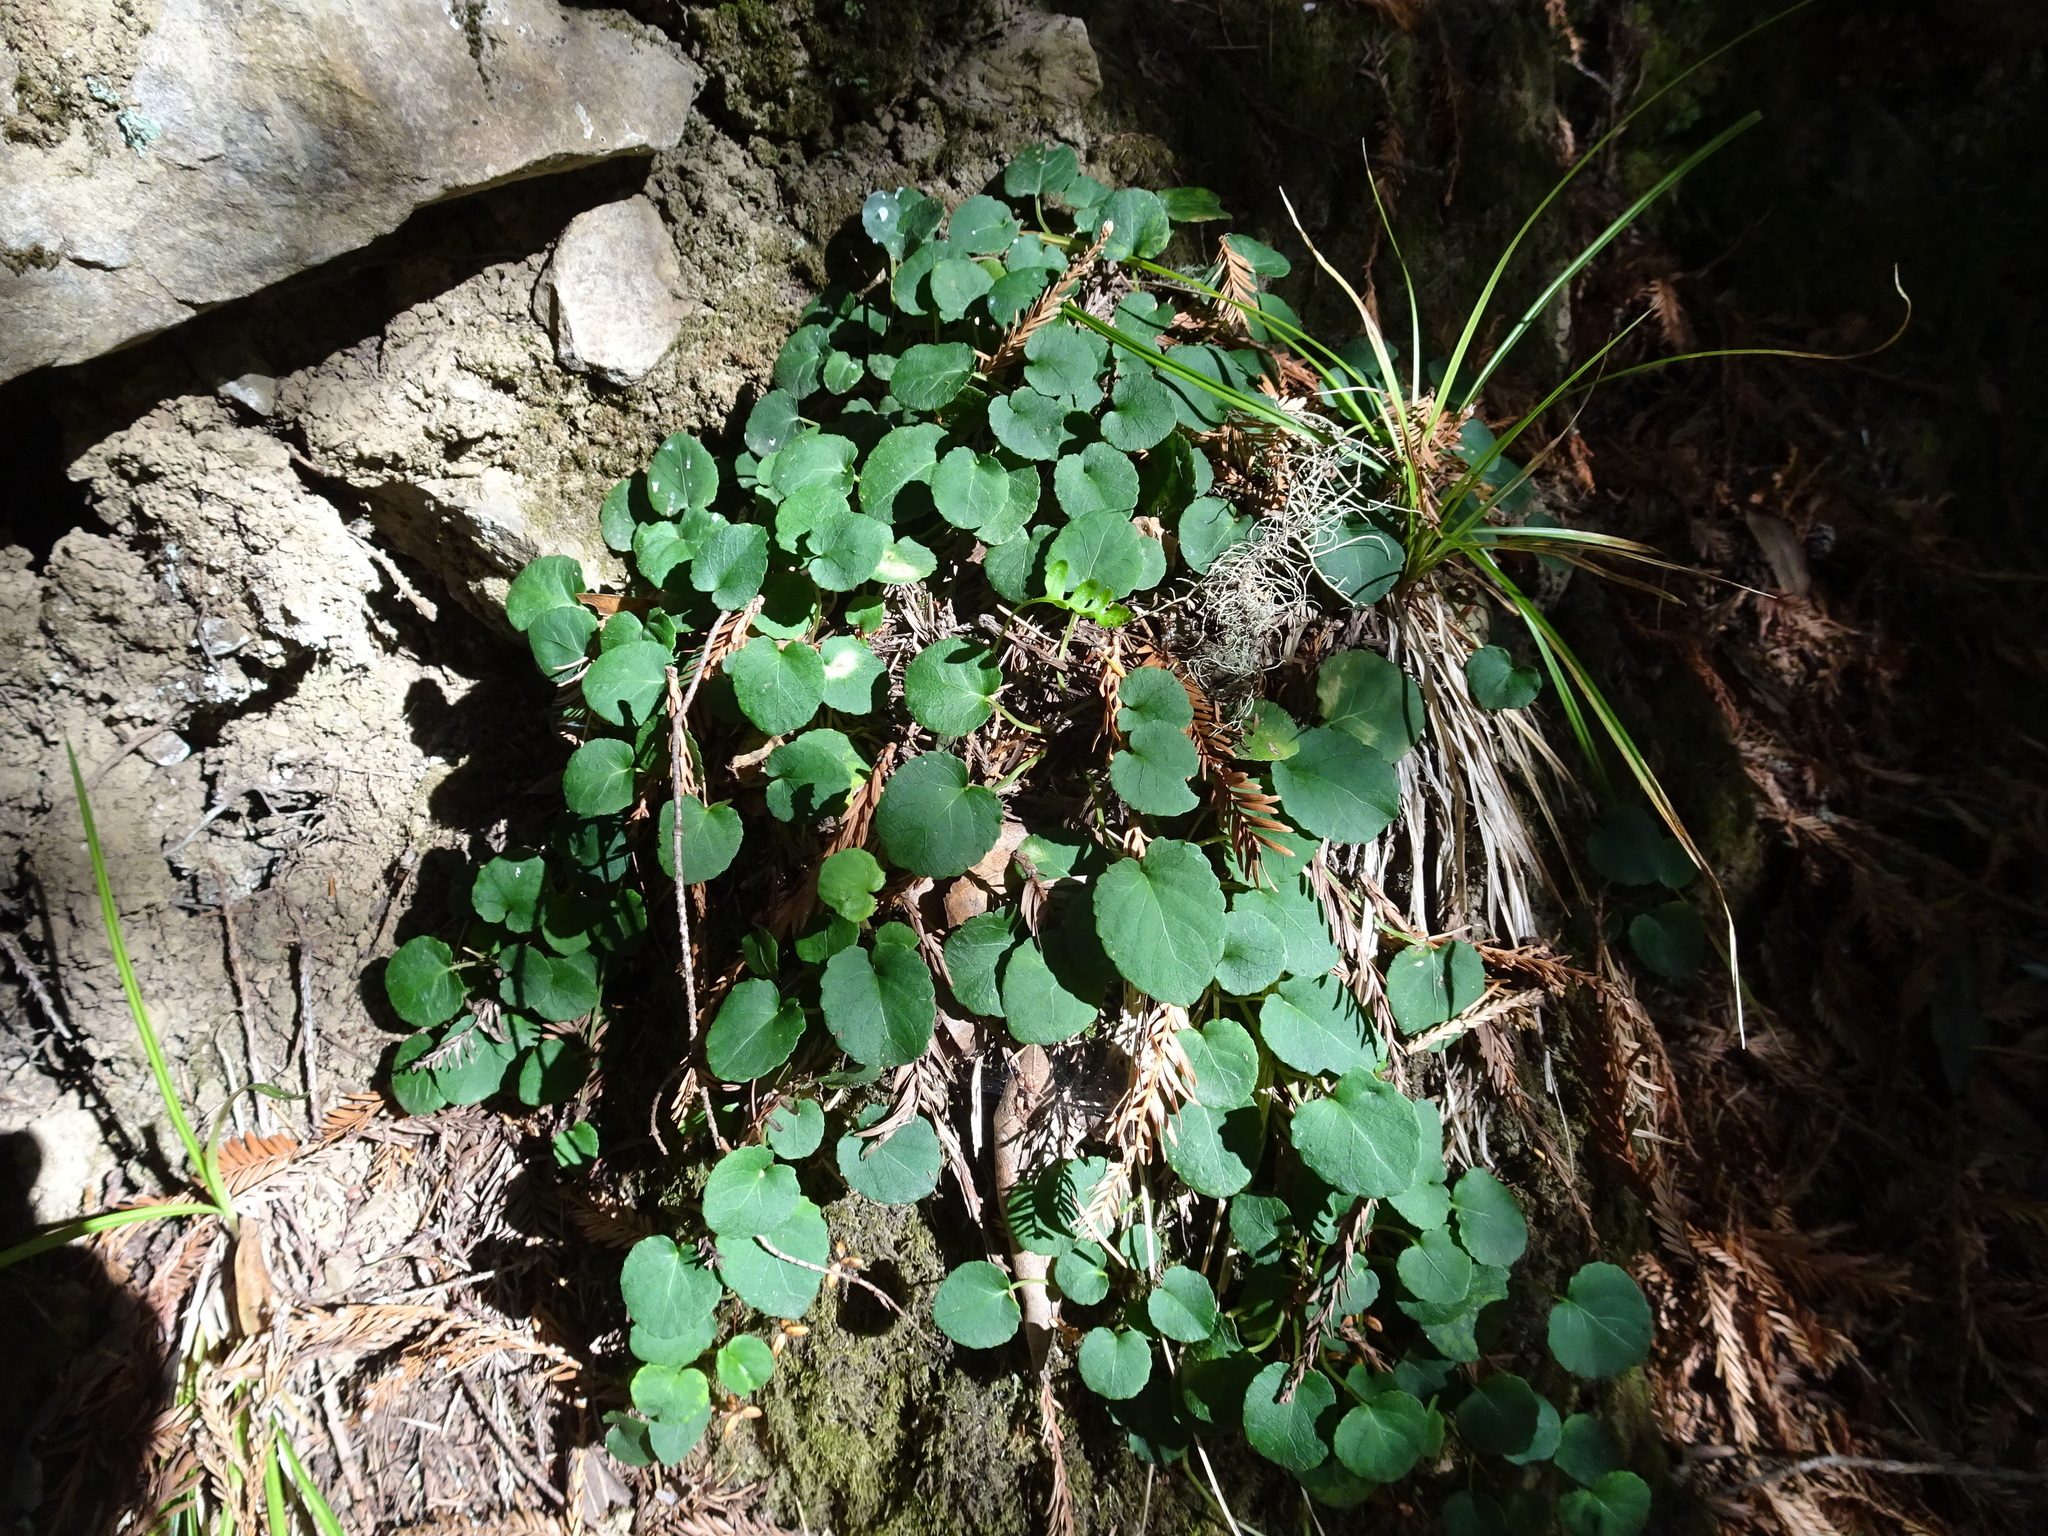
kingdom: Plantae
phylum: Tracheophyta
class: Magnoliopsida
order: Malpighiales
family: Violaceae
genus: Viola
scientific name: Viola sempervirens
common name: Evergreen violet
